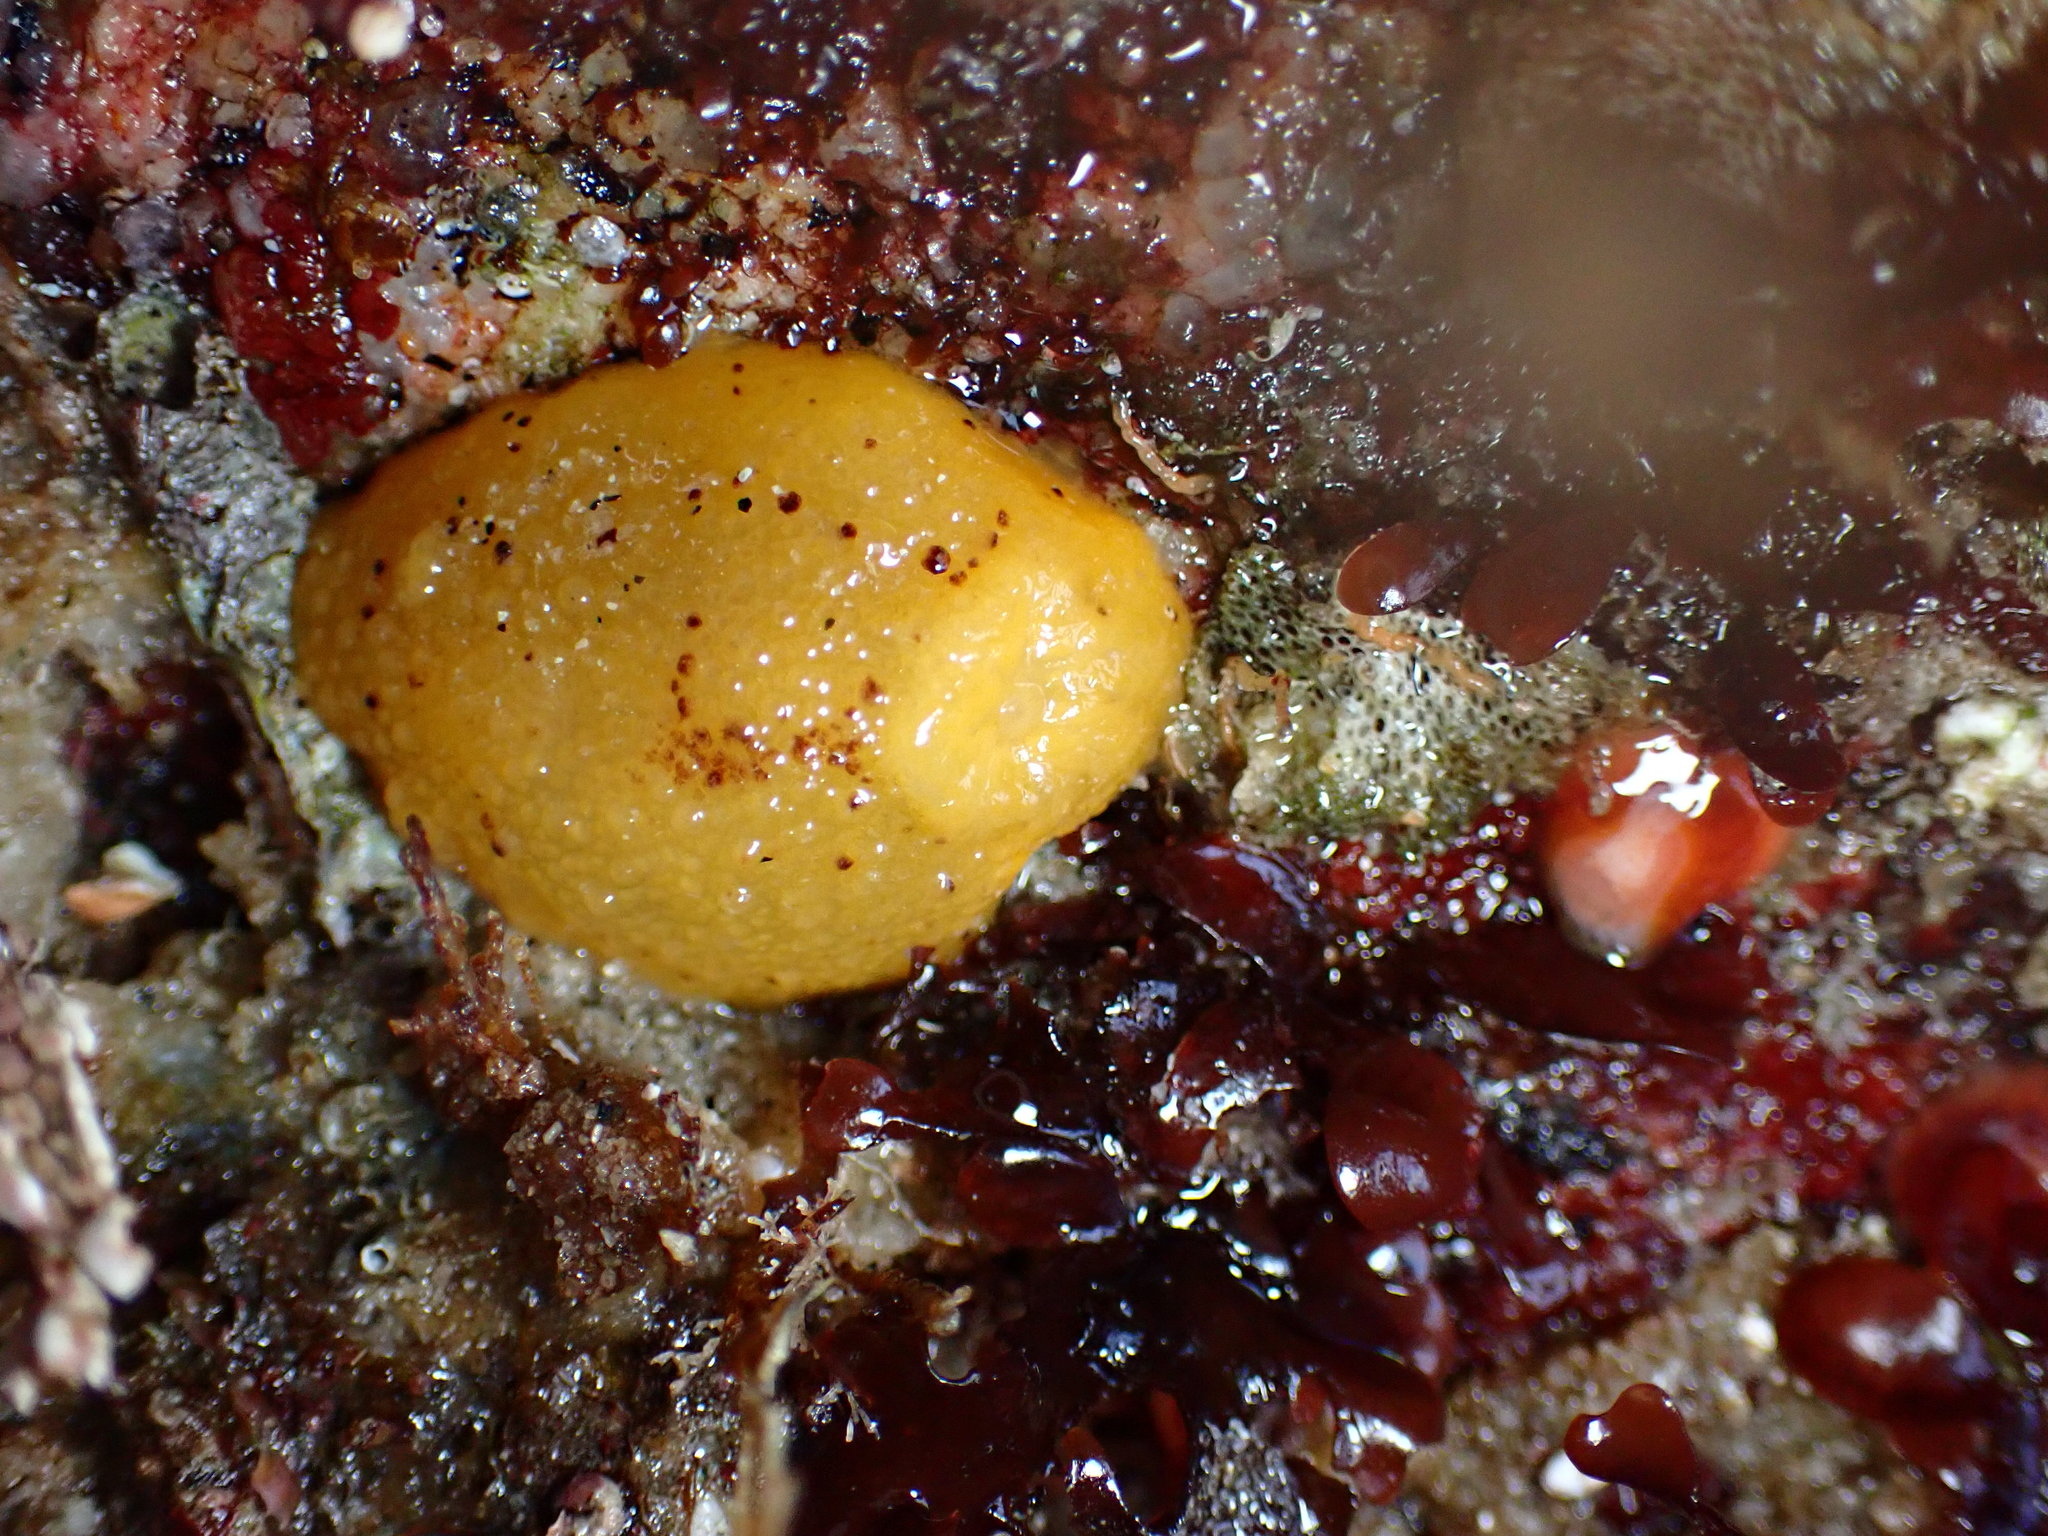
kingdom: Animalia
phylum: Mollusca
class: Gastropoda
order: Nudibranchia
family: Dorididae
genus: Doris
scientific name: Doris montereyensis
